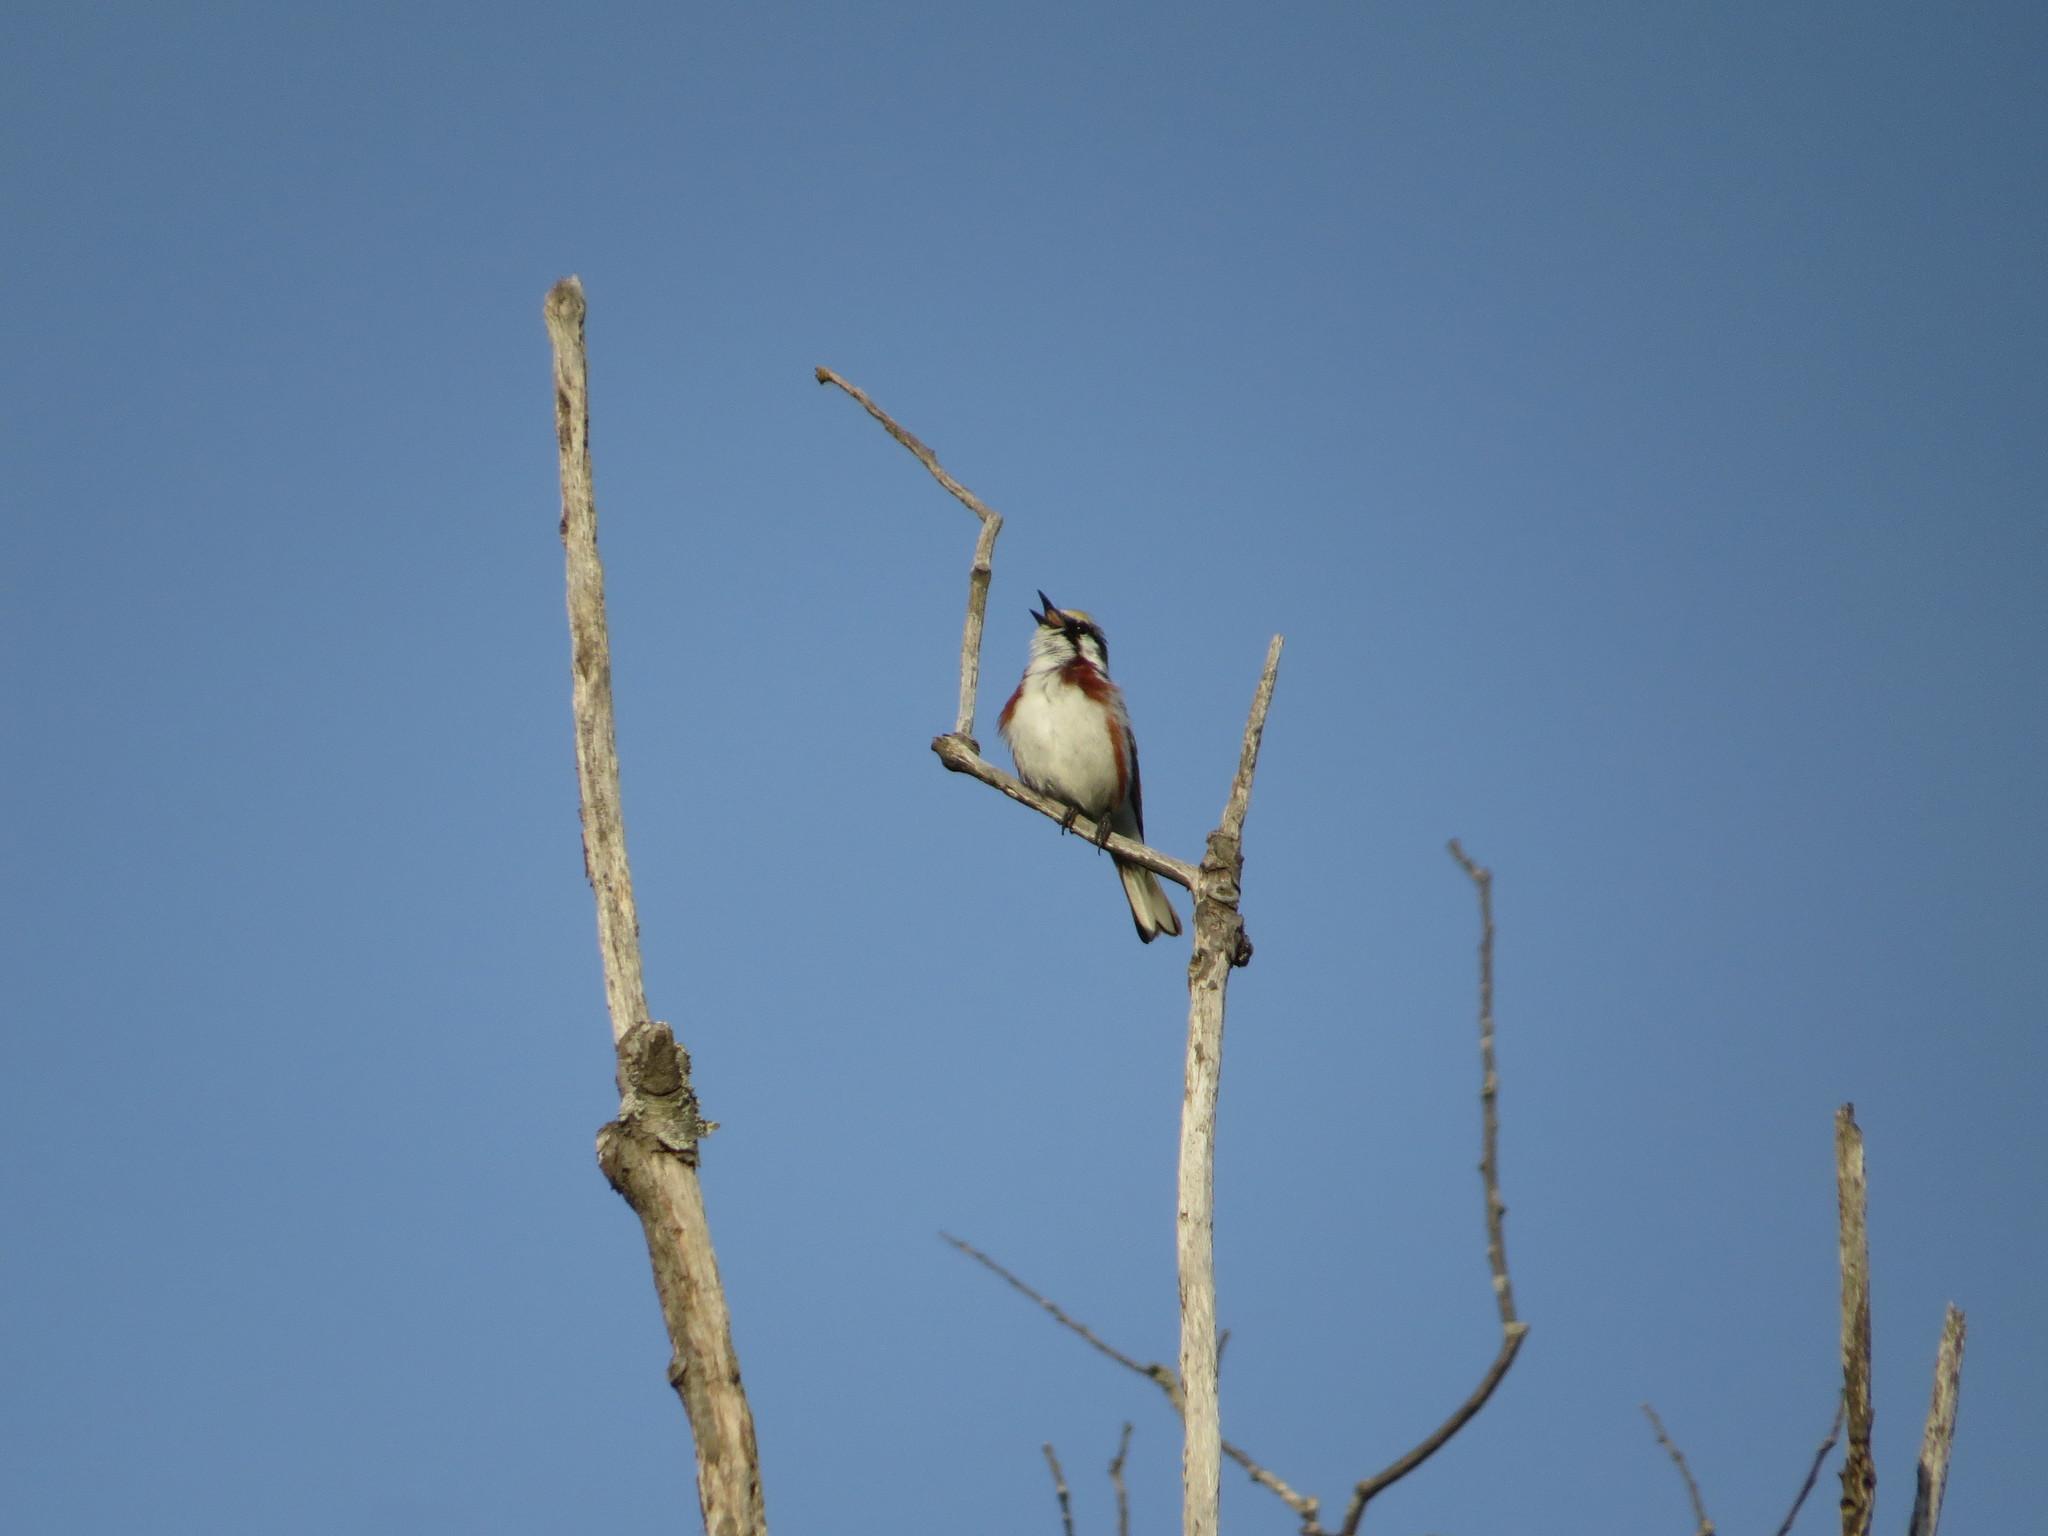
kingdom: Animalia
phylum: Chordata
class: Aves
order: Passeriformes
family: Parulidae
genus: Setophaga
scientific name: Setophaga pensylvanica
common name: Chestnut-sided warbler
